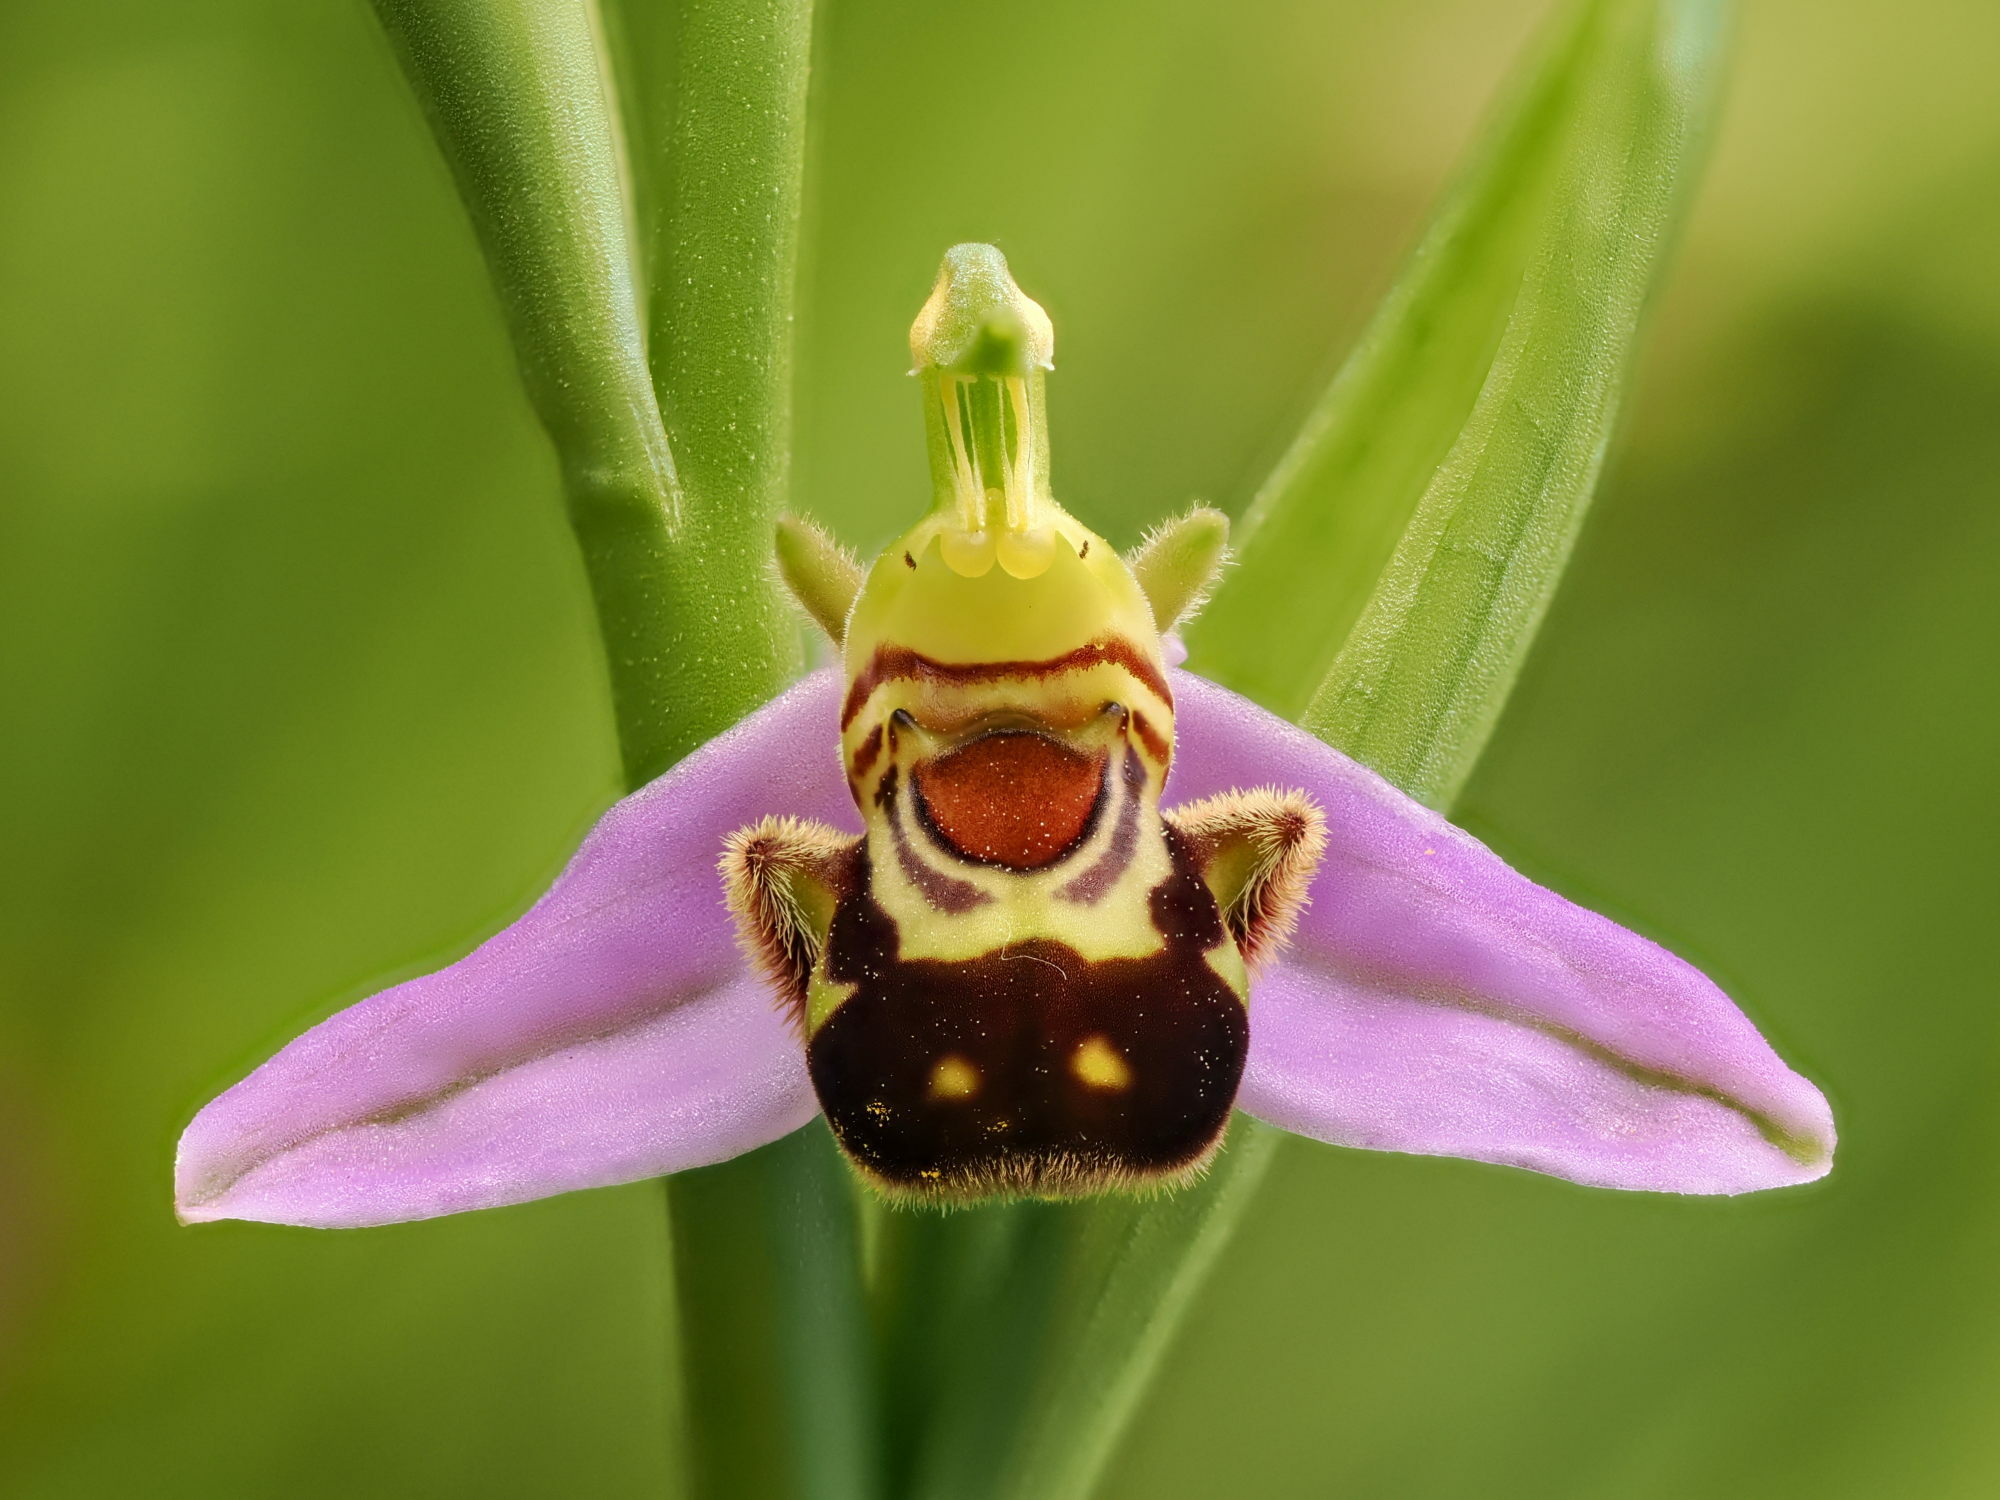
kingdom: Plantae
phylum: Tracheophyta
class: Liliopsida
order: Asparagales
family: Orchidaceae
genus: Ophrys
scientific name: Ophrys apifera
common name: Bee orchid
